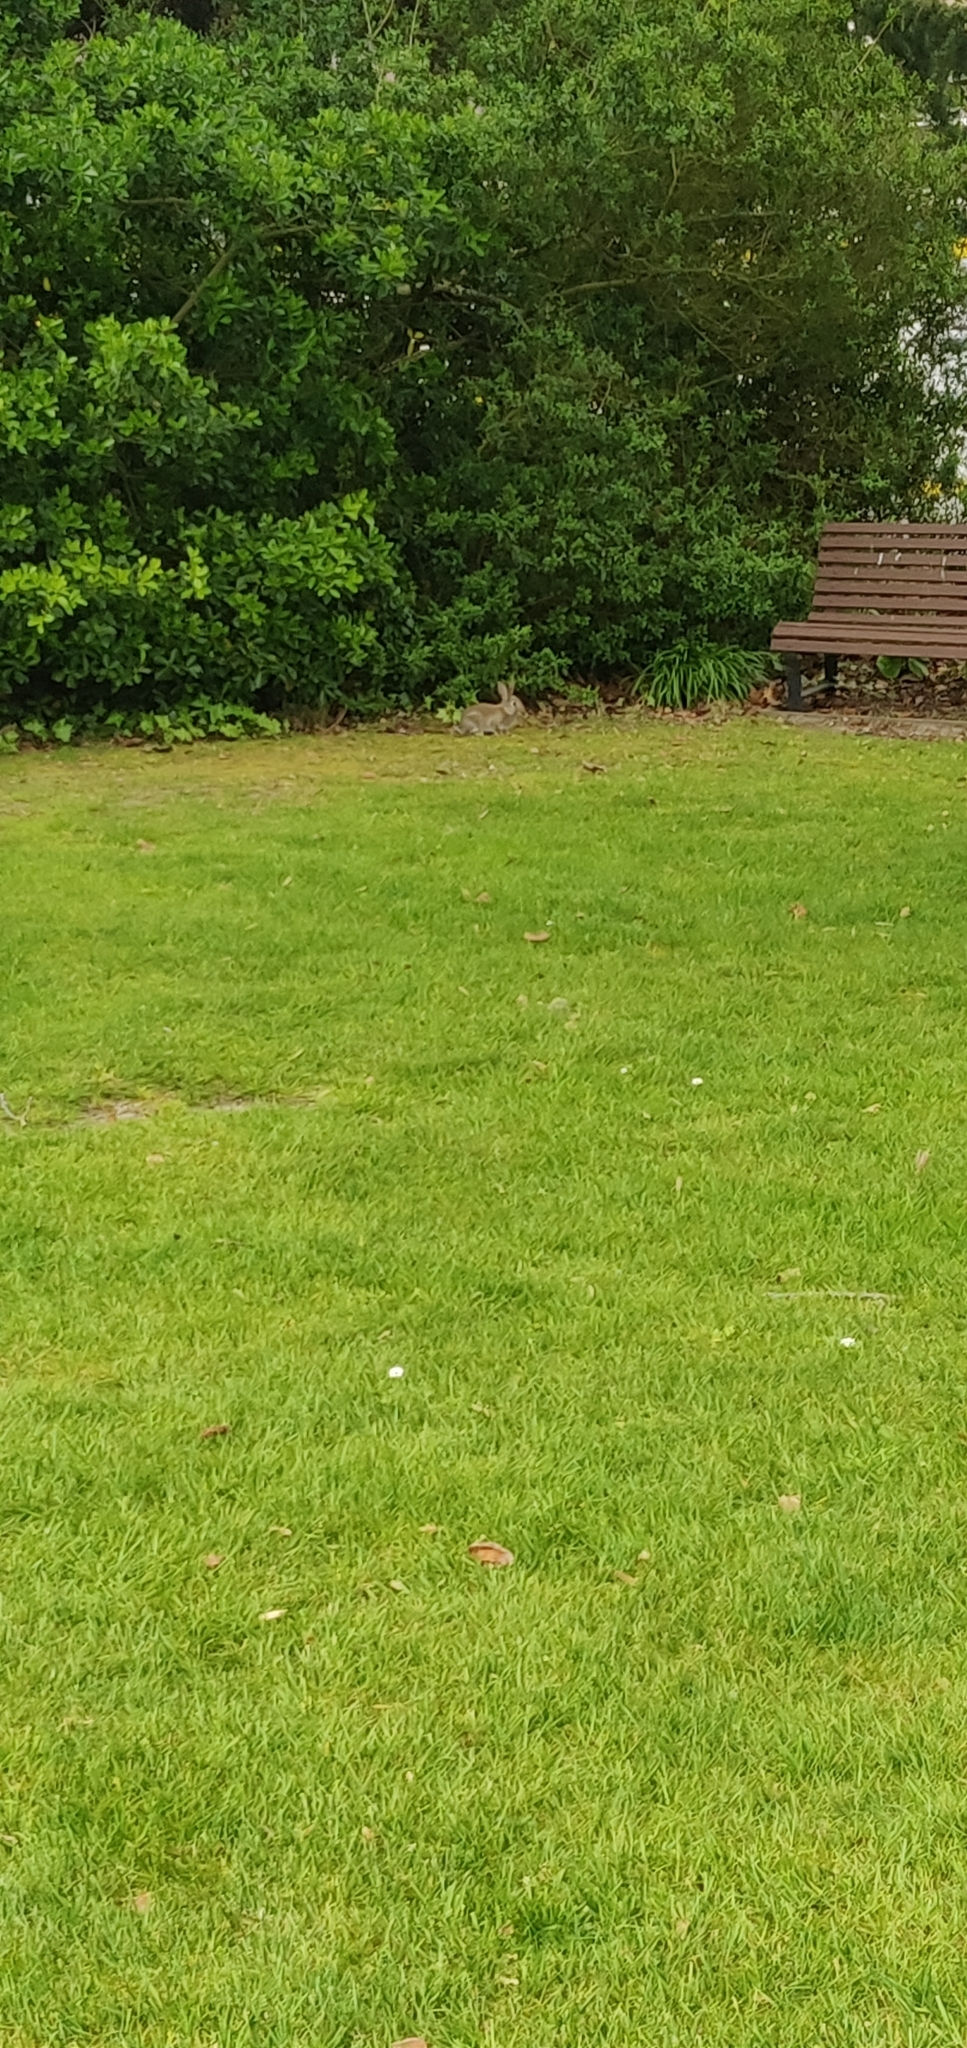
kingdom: Animalia
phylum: Chordata
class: Mammalia
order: Lagomorpha
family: Leporidae
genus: Oryctolagus
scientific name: Oryctolagus cuniculus
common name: European rabbit
